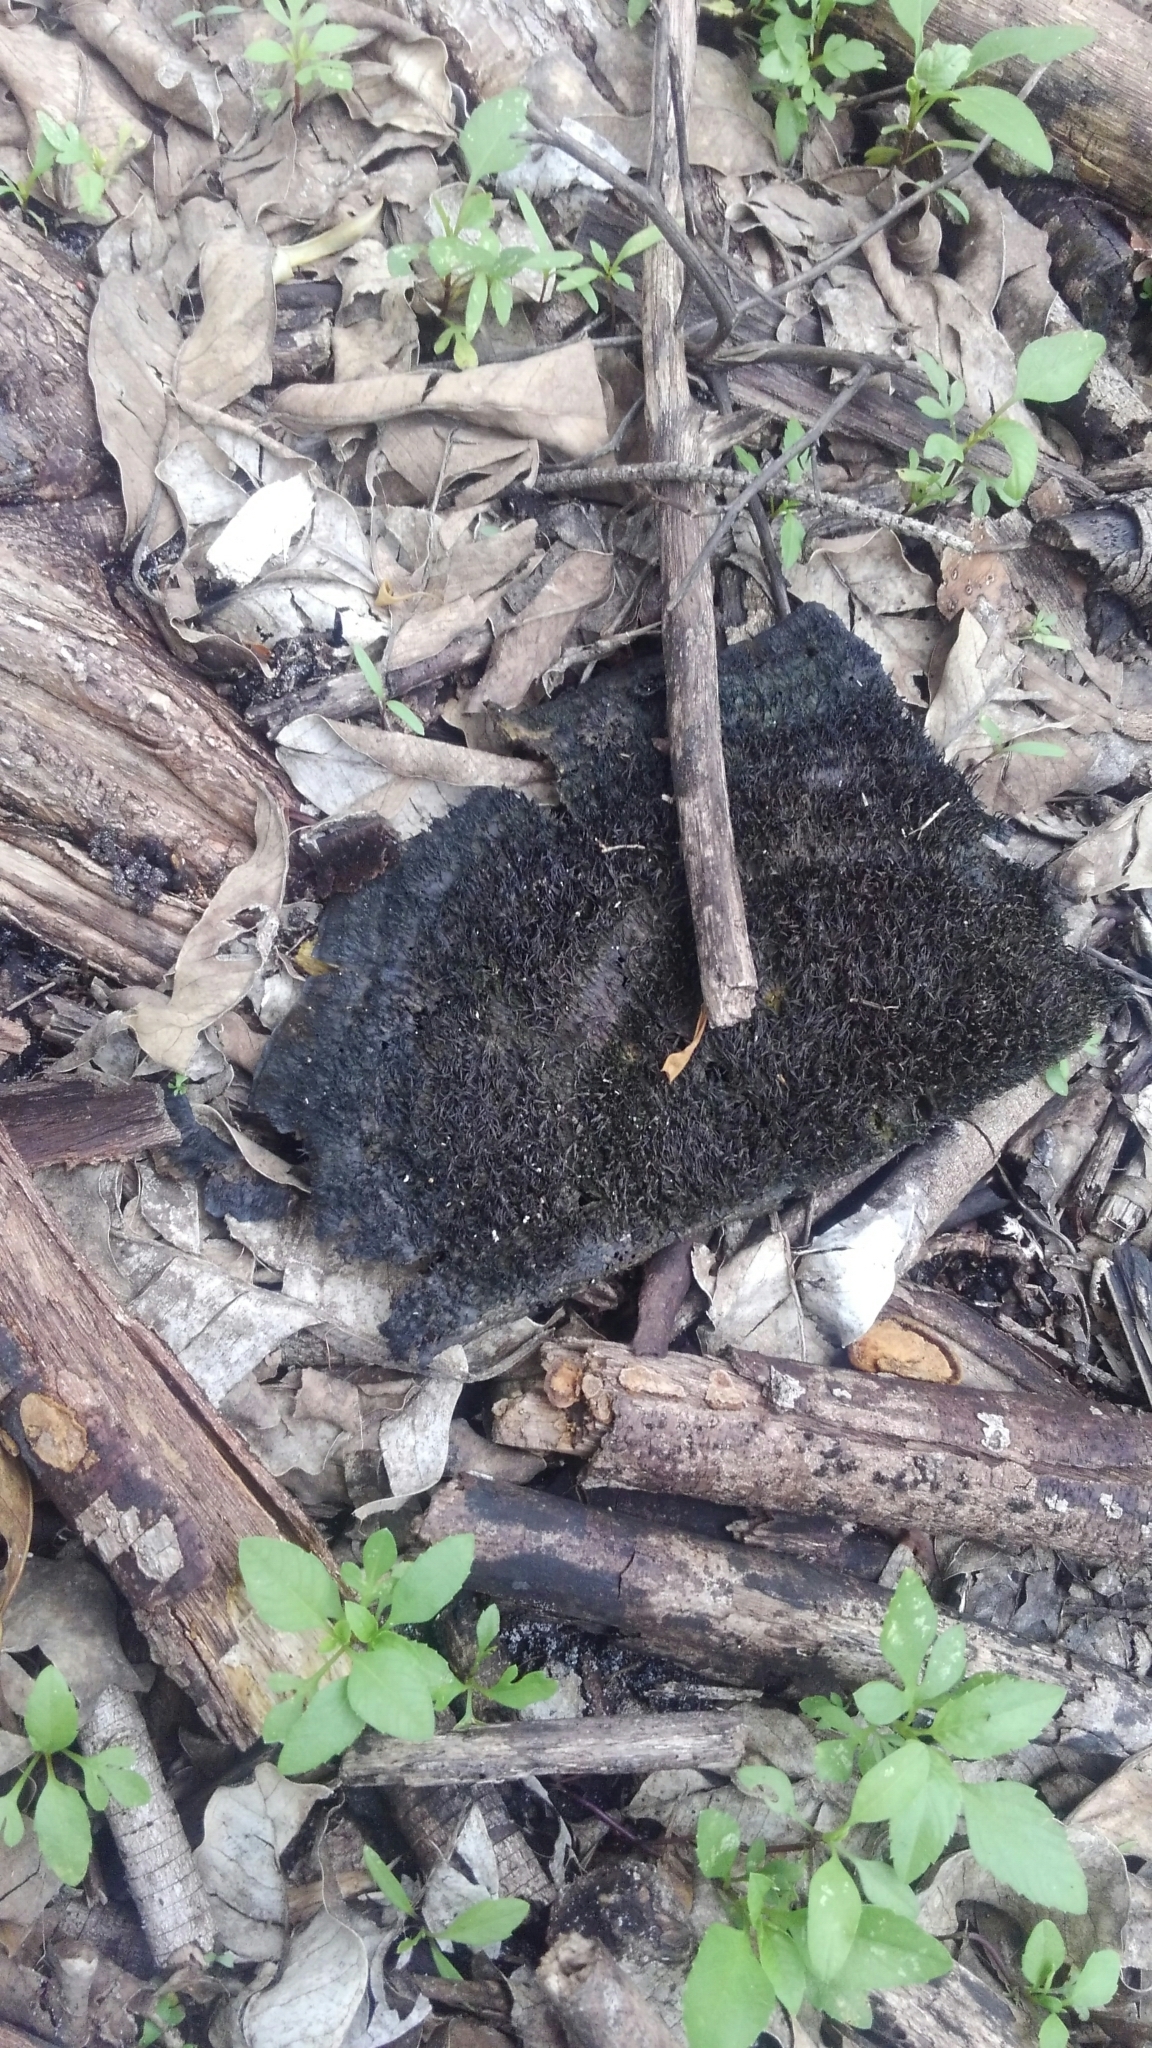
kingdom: Fungi
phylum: Basidiomycota
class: Agaricomycetes
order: Polyporales
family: Cerrenaceae
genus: Cerrena
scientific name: Cerrena hydnoides
